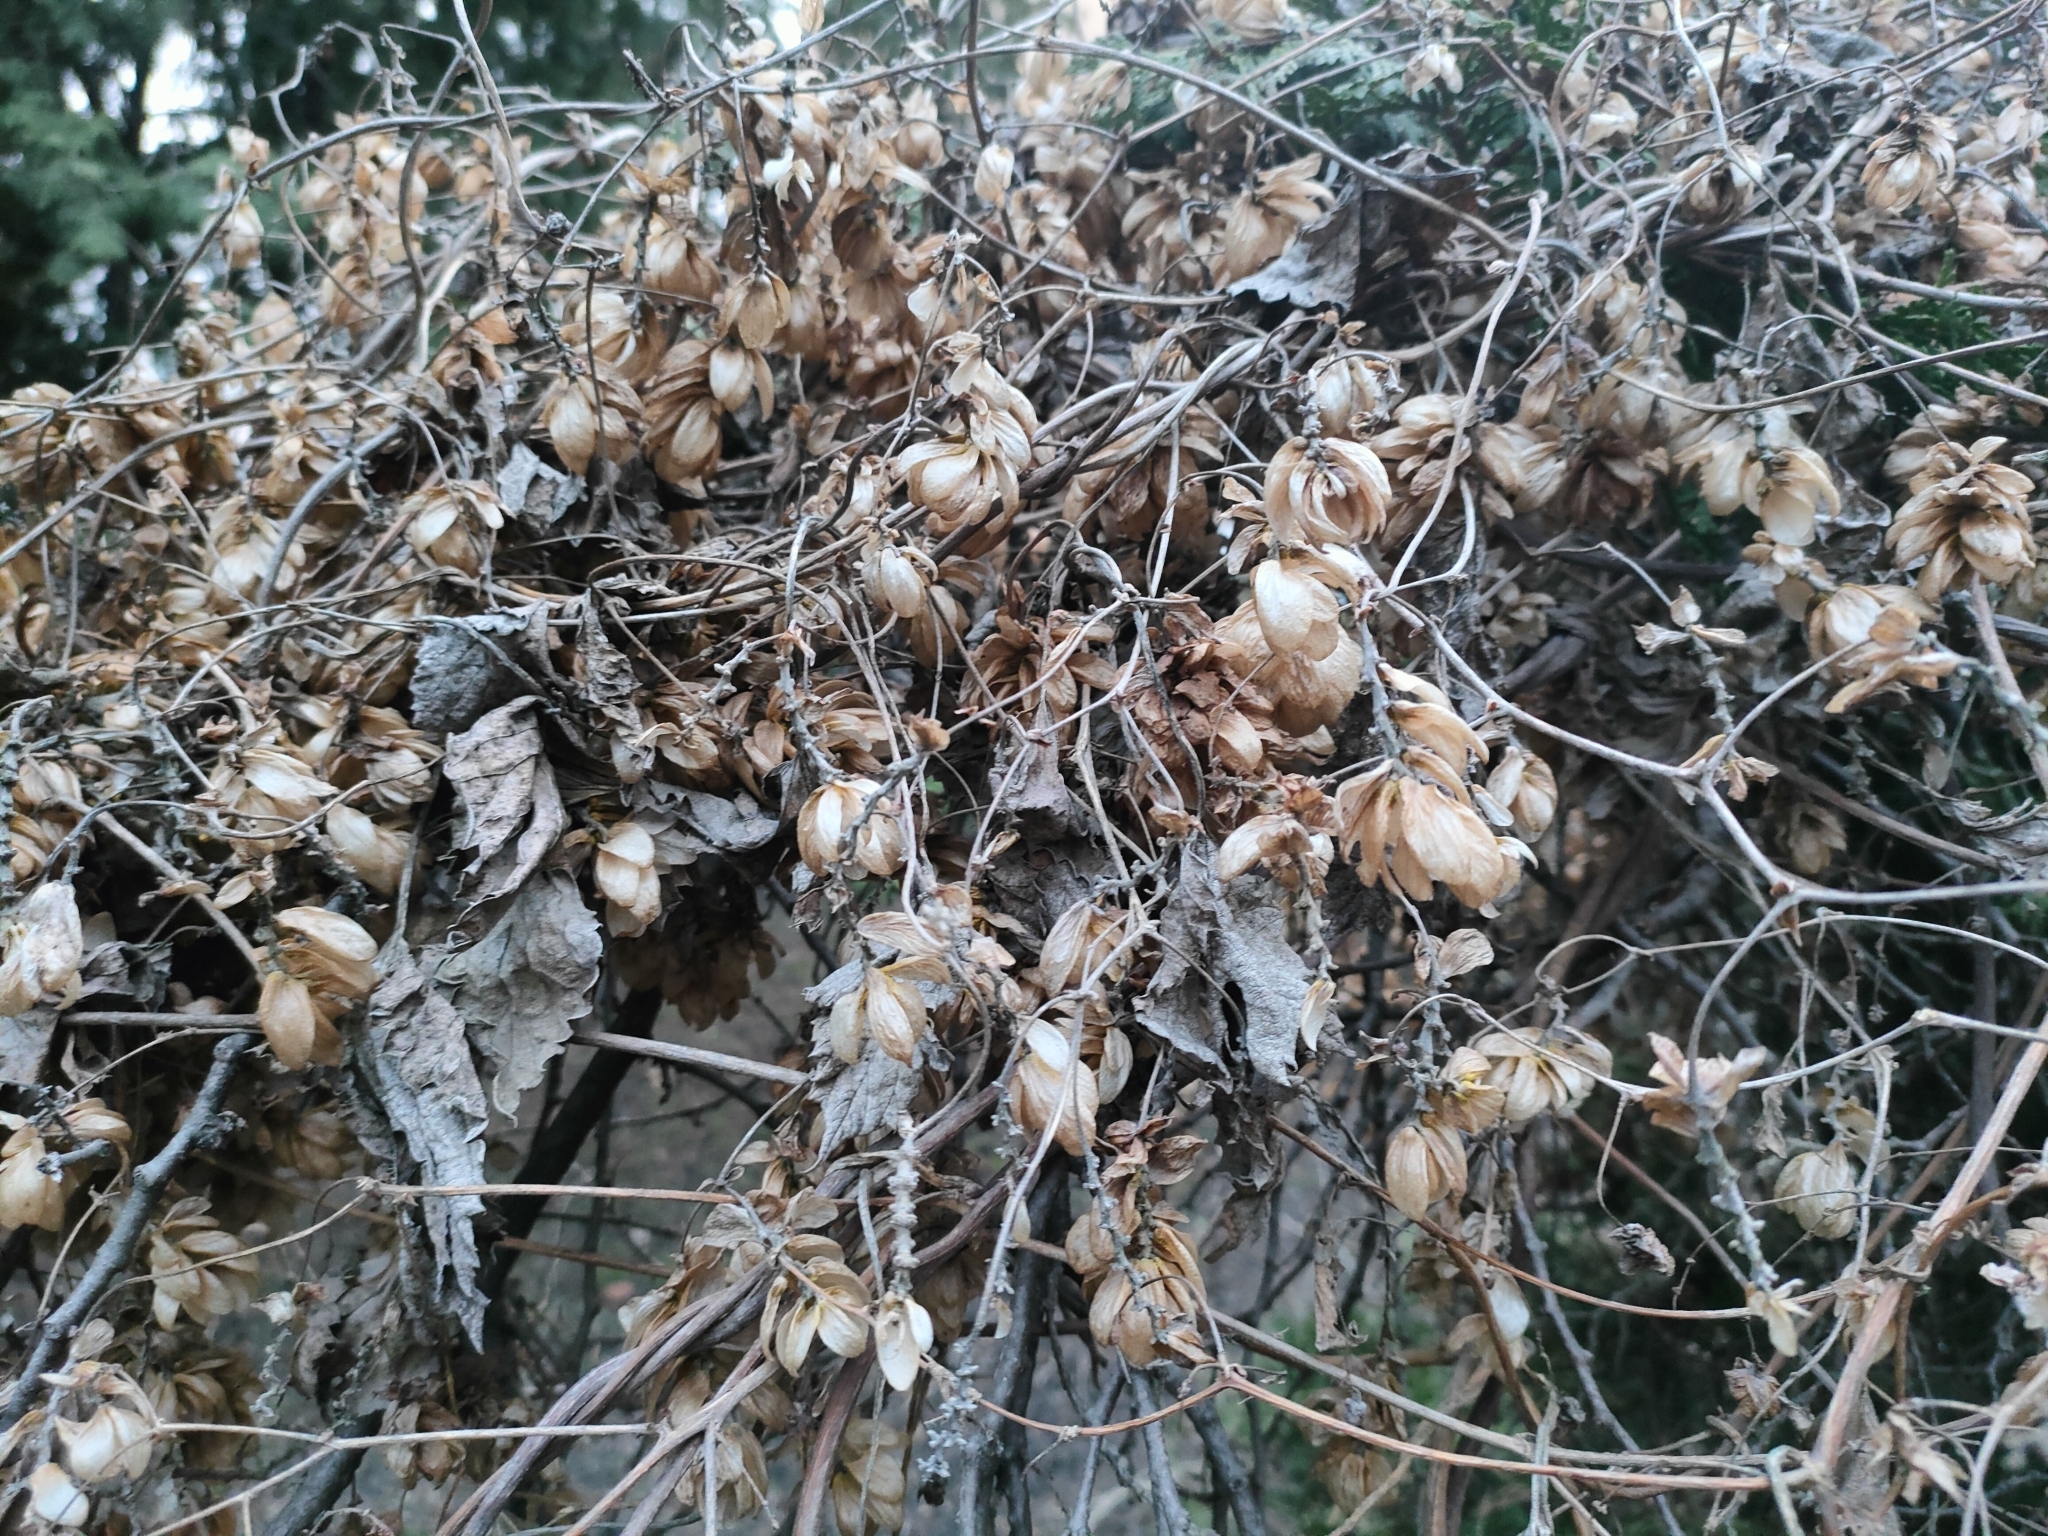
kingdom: Plantae
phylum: Tracheophyta
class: Magnoliopsida
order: Rosales
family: Cannabaceae
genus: Humulus
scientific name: Humulus lupulus
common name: Hop
